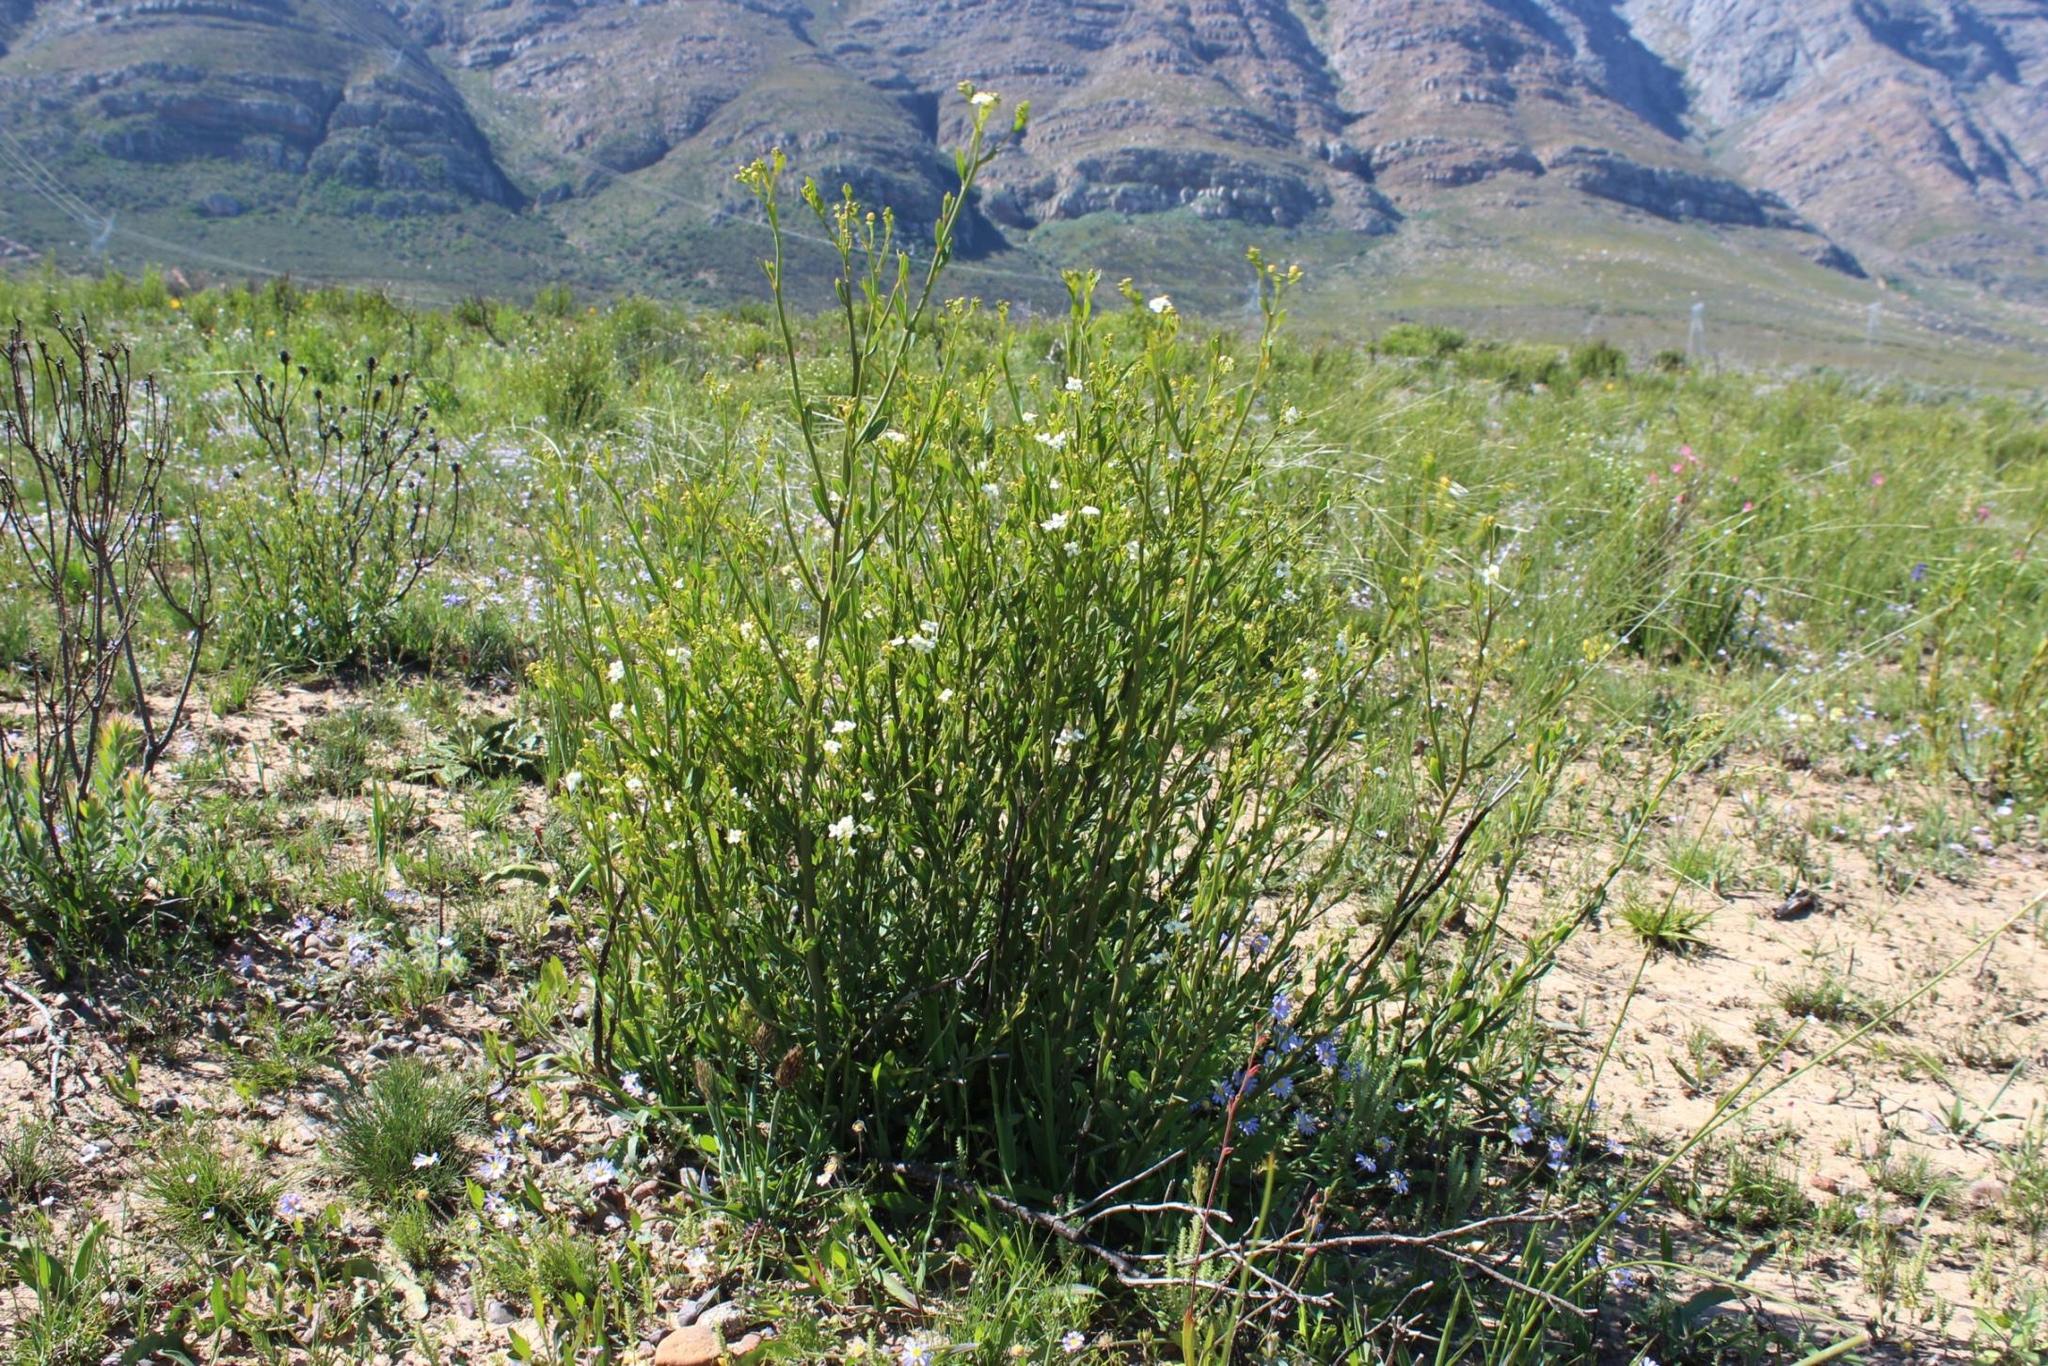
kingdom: Plantae
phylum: Tracheophyta
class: Magnoliopsida
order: Solanales
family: Montiniaceae
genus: Montinia
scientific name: Montinia caryophyllacea
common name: Wild clove-bush
